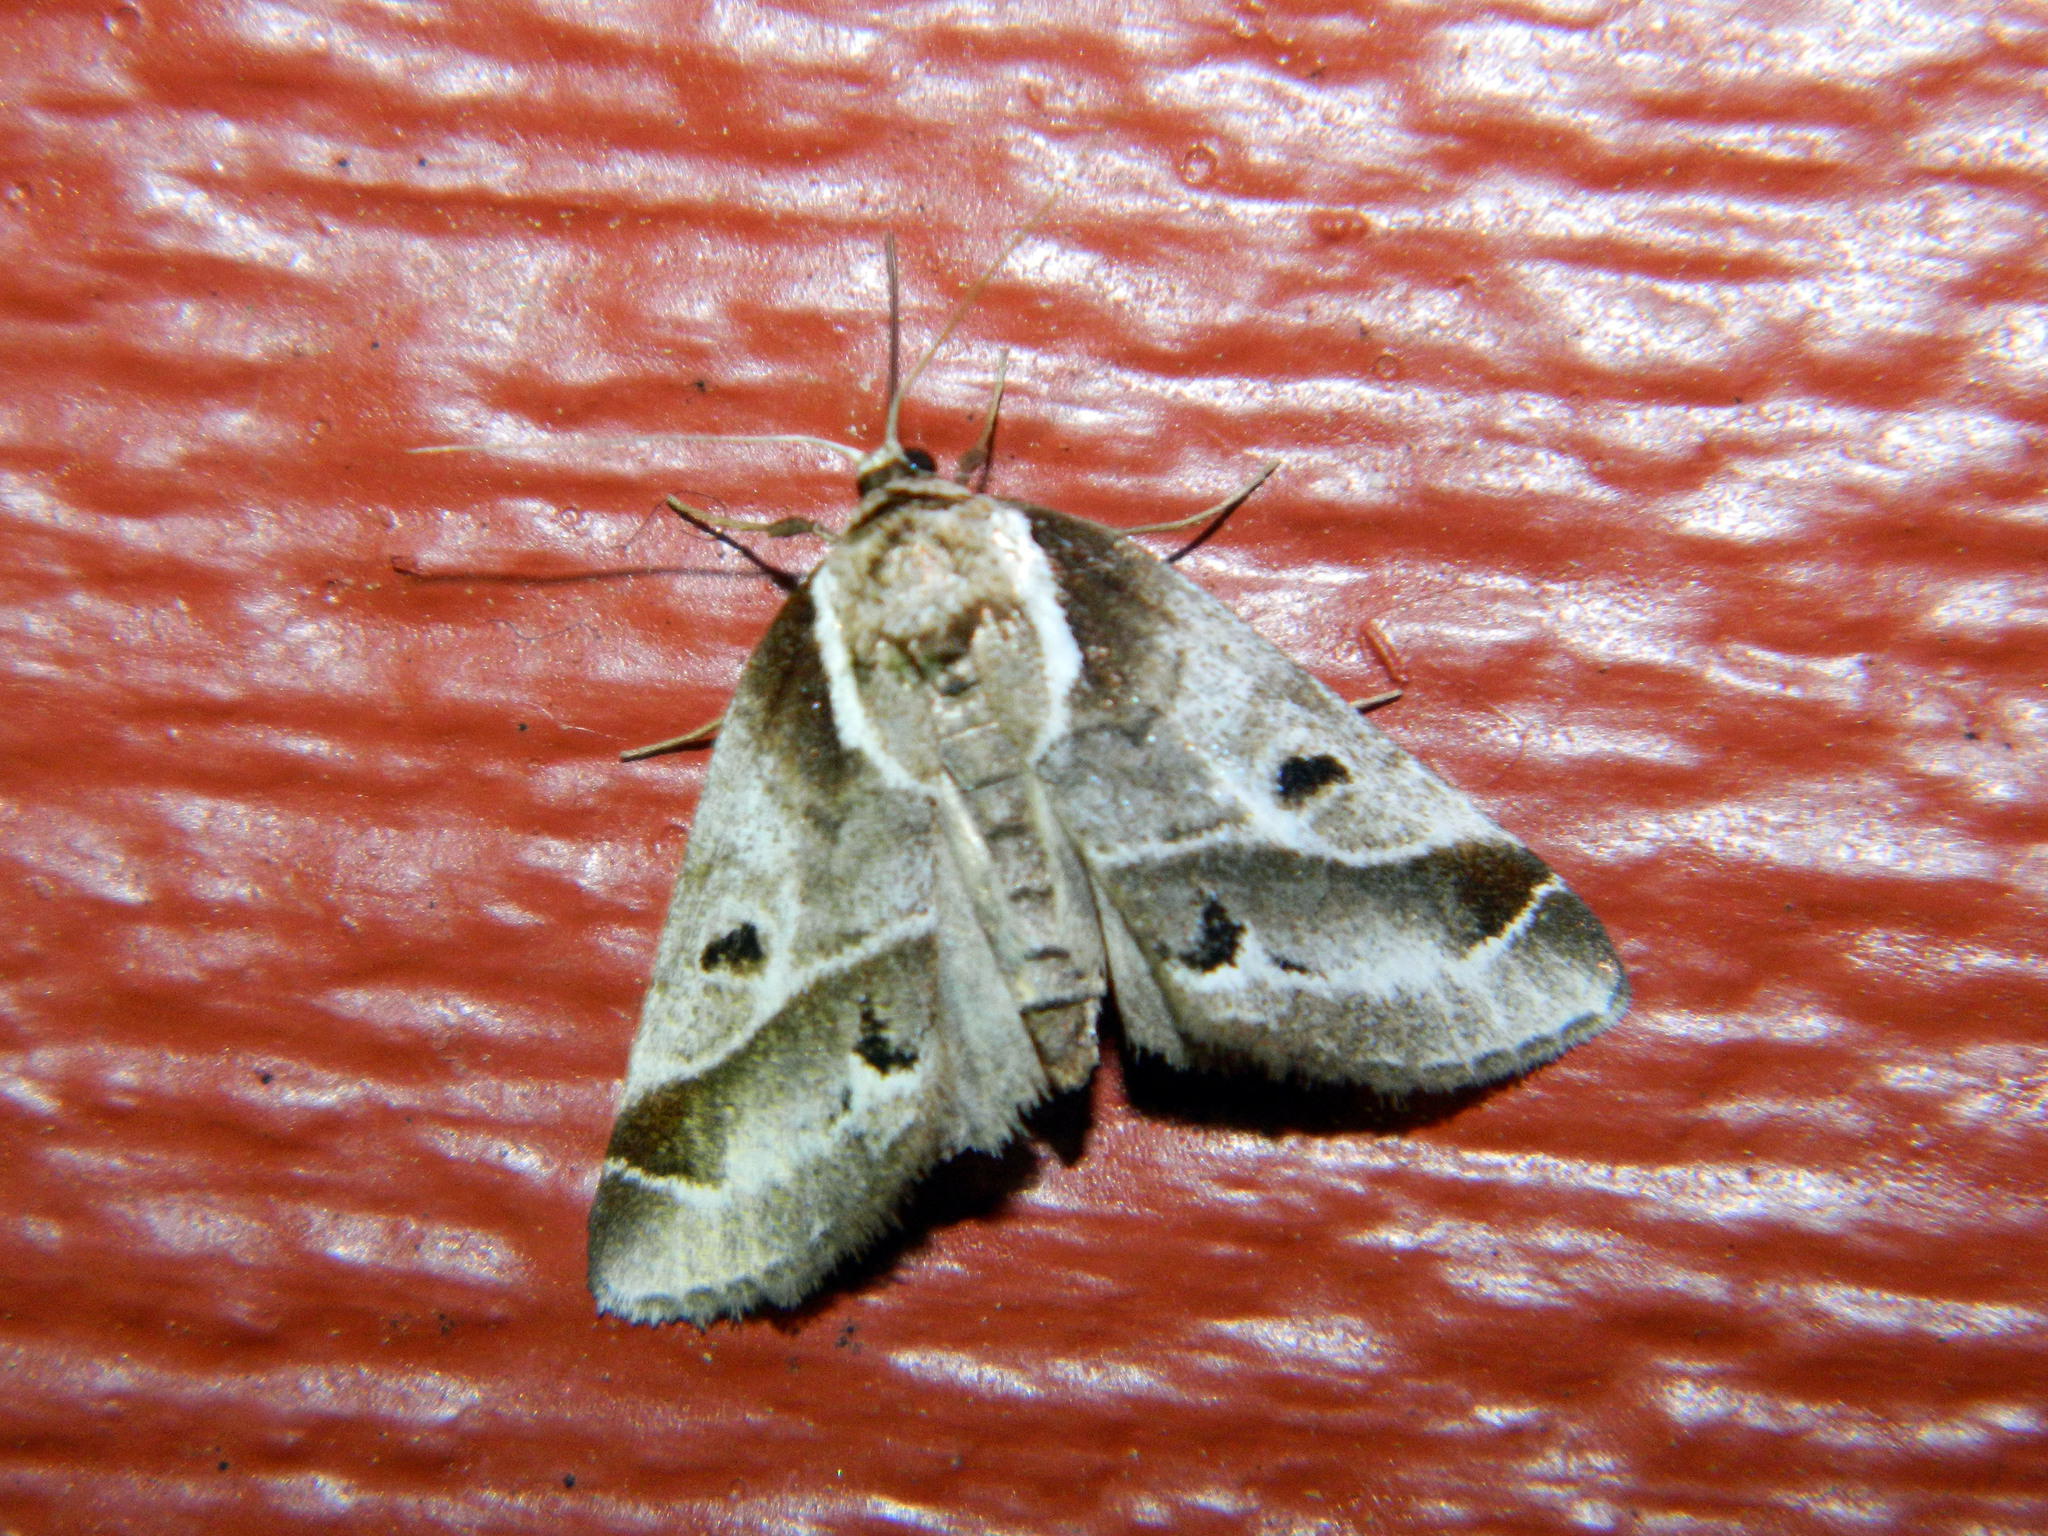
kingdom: Animalia
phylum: Arthropoda
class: Insecta
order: Lepidoptera
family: Nolidae
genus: Baileya
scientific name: Baileya doubledayi
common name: Doubleday's baileya moth
